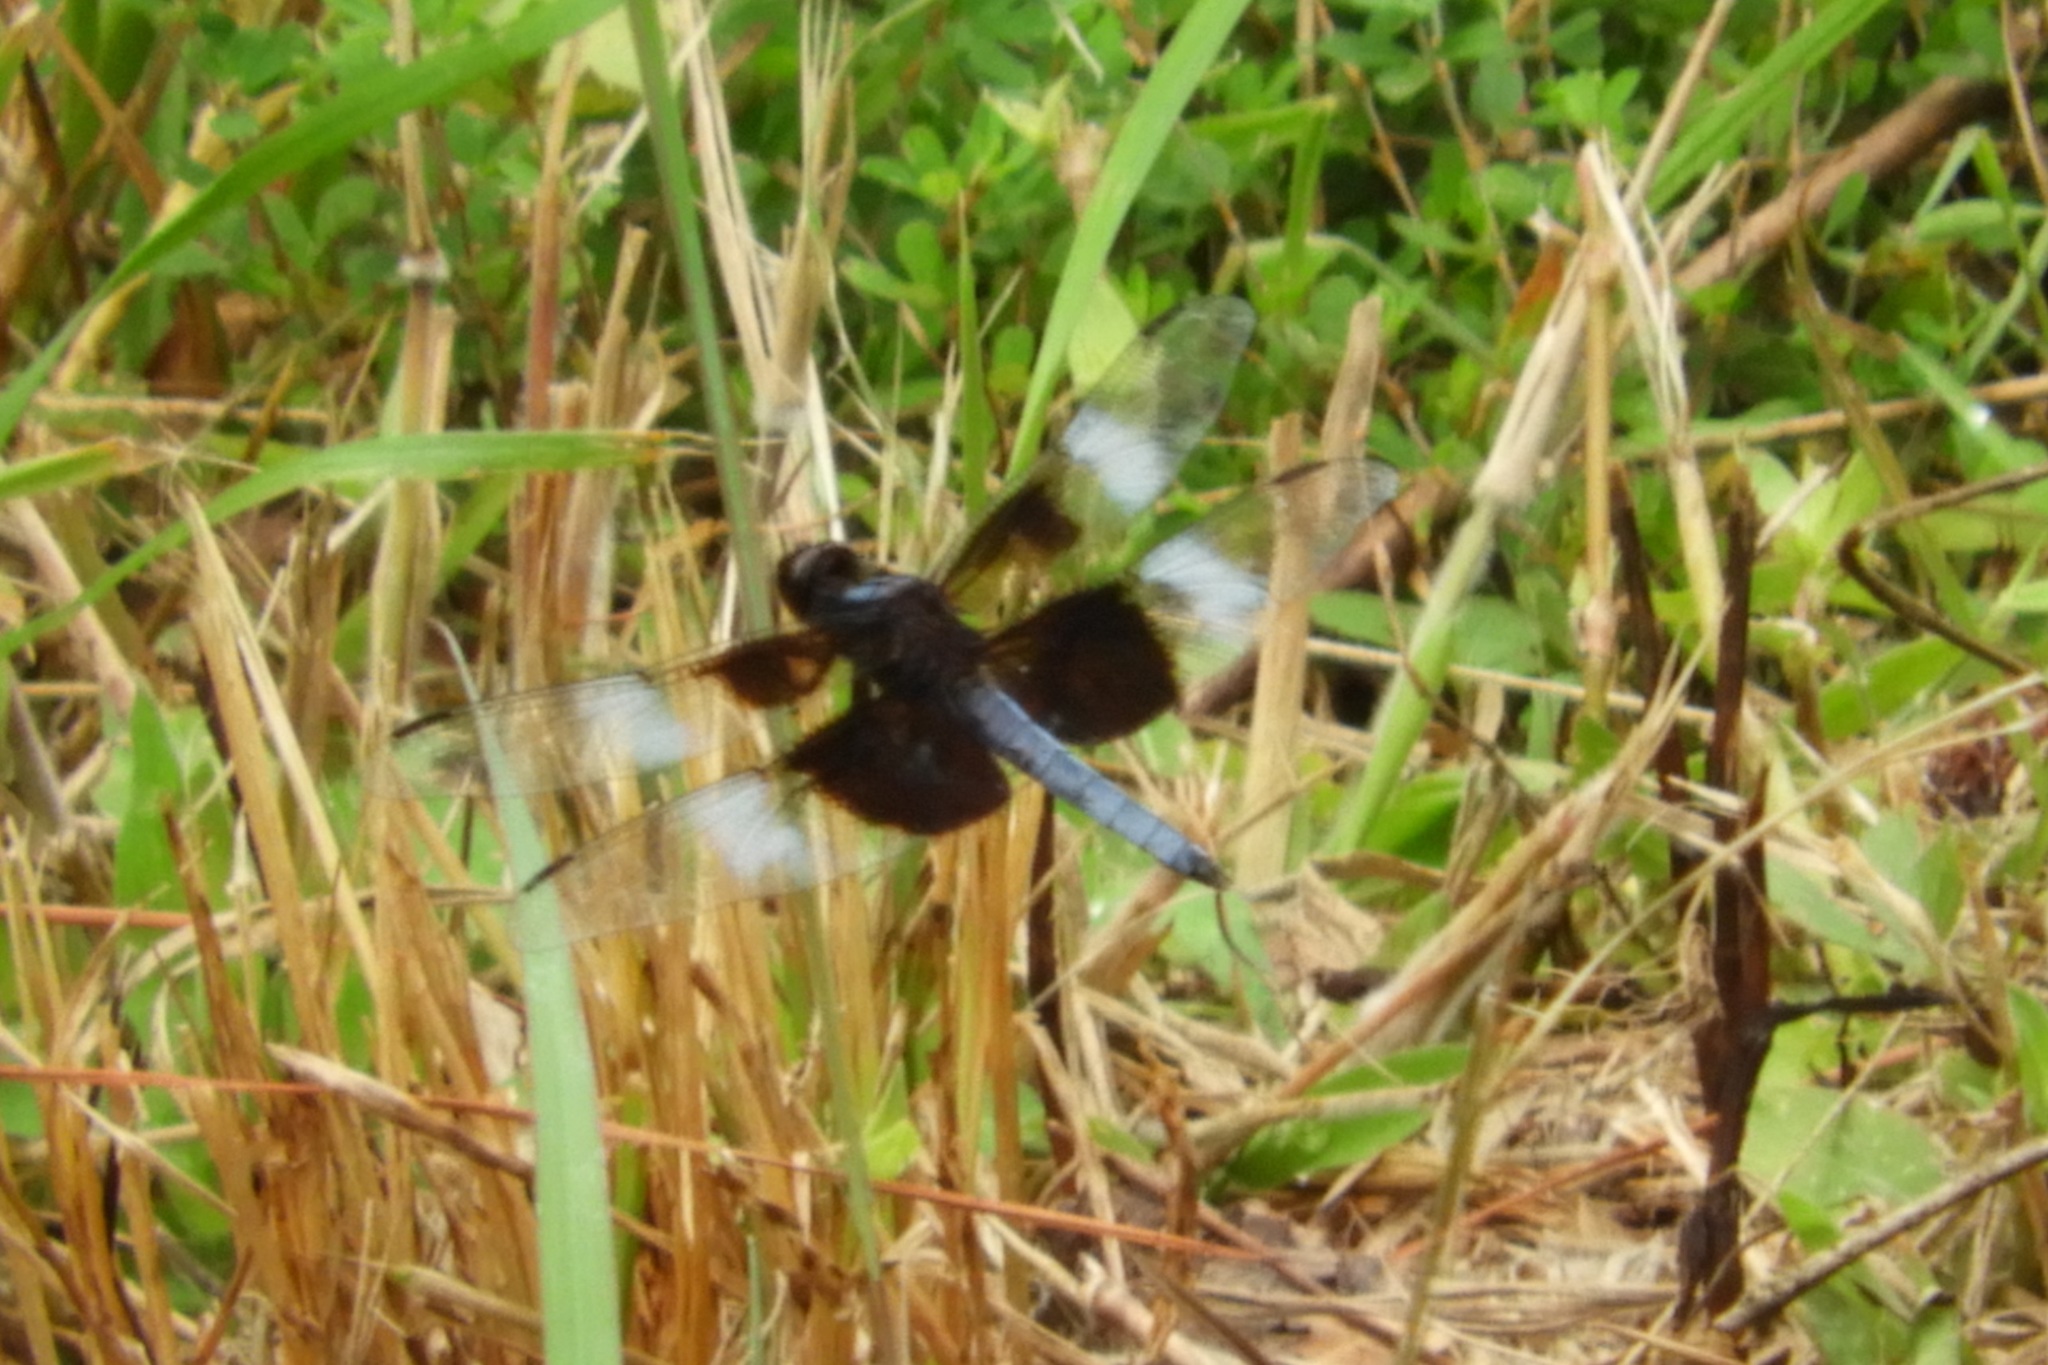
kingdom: Animalia
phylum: Arthropoda
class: Insecta
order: Odonata
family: Libellulidae
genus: Libellula
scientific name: Libellula luctuosa
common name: Widow skimmer
